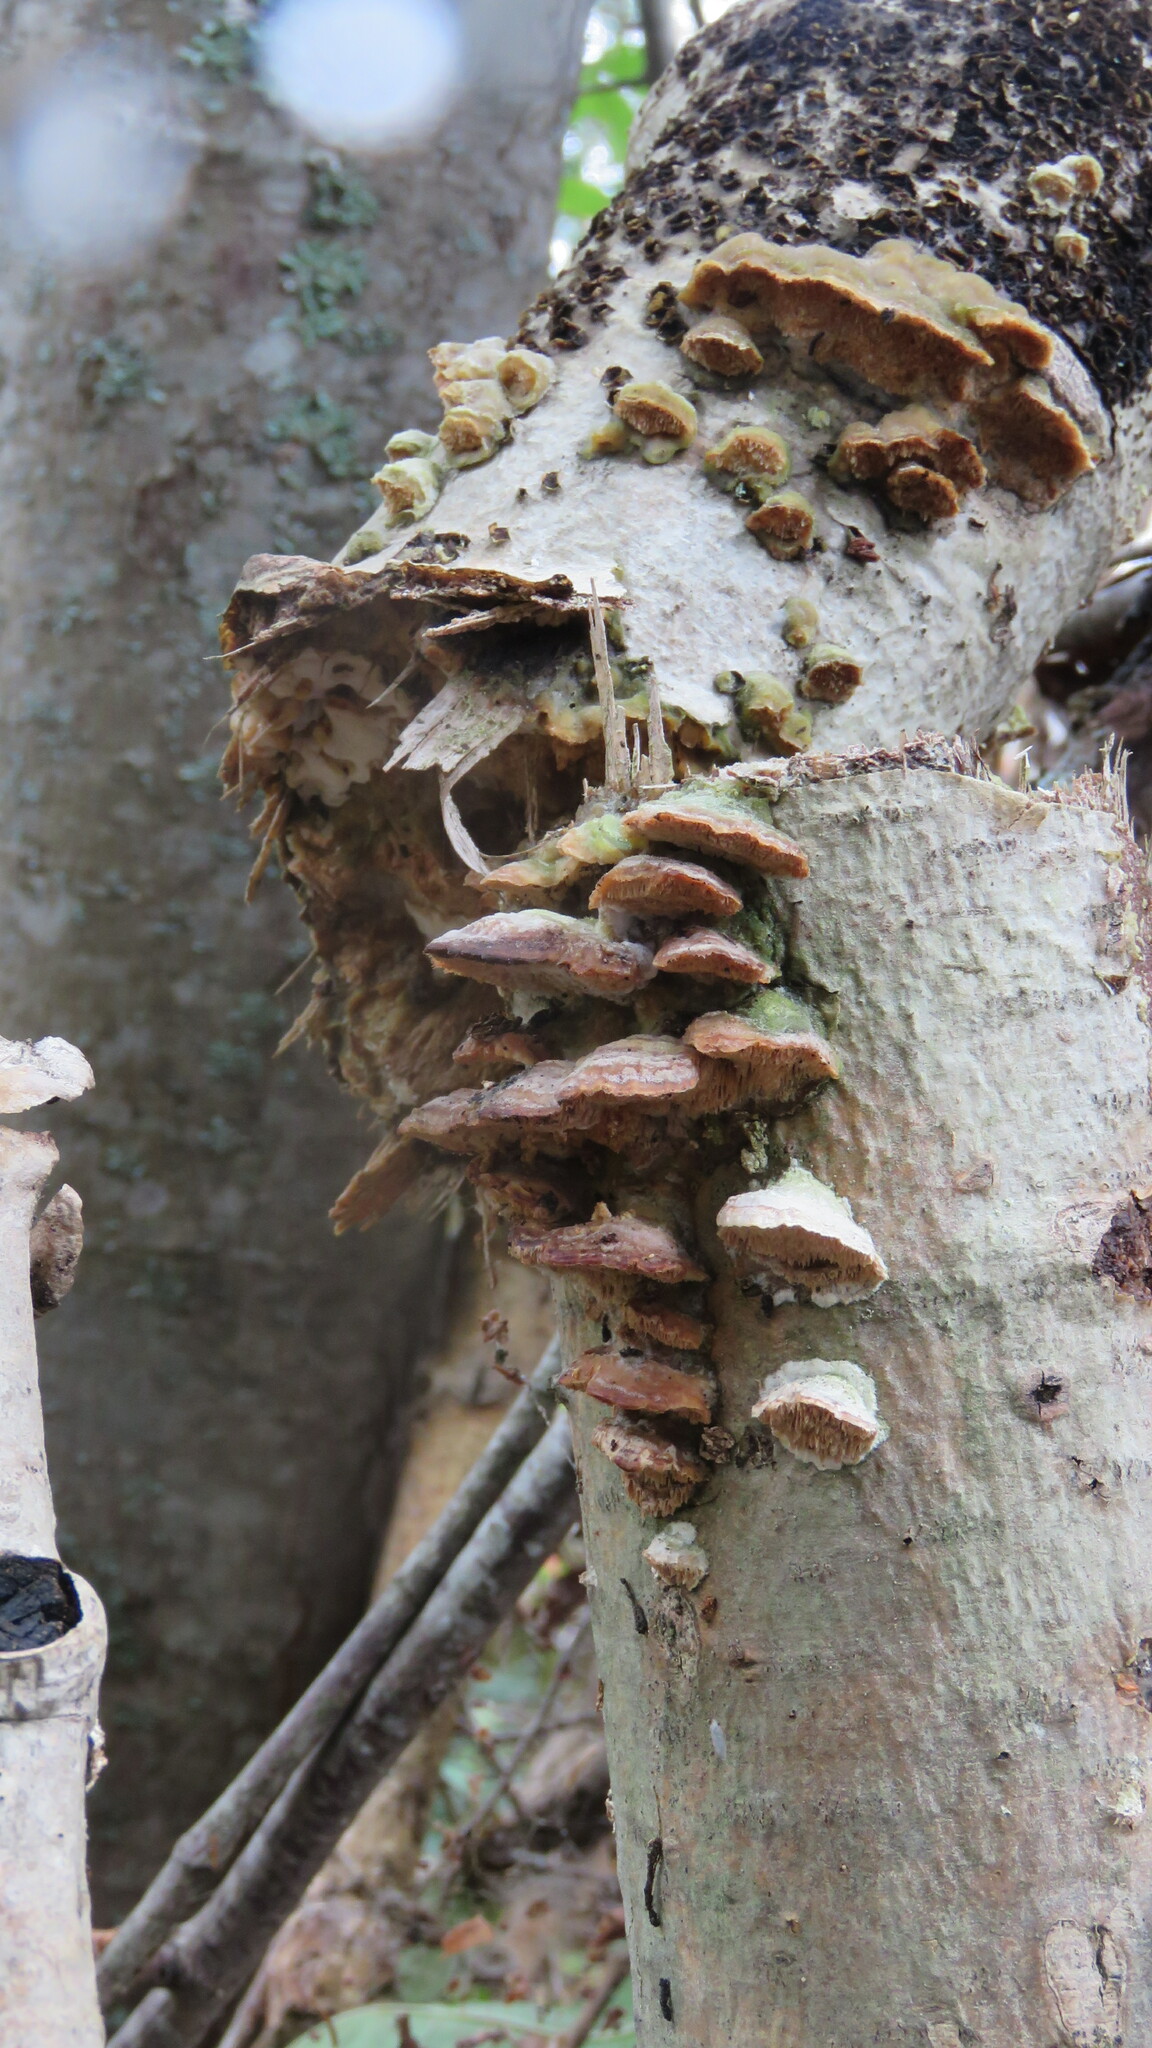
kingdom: Fungi
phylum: Basidiomycota
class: Agaricomycetes
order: Hymenochaetales
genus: Trichaptum
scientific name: Trichaptum biforme
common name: Violet-toothed polypore
